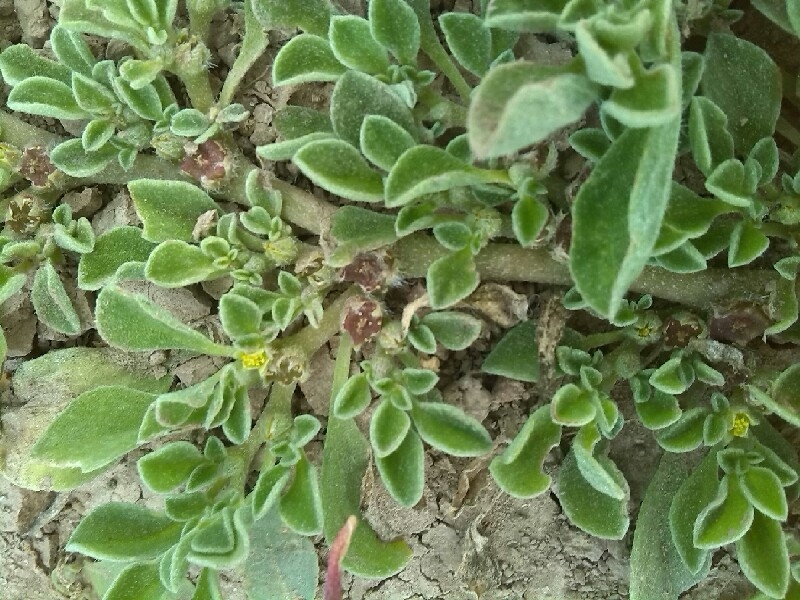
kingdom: Plantae
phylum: Tracheophyta
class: Magnoliopsida
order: Caryophyllales
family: Aizoaceae
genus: Aizoon
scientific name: Aizoon canariense
